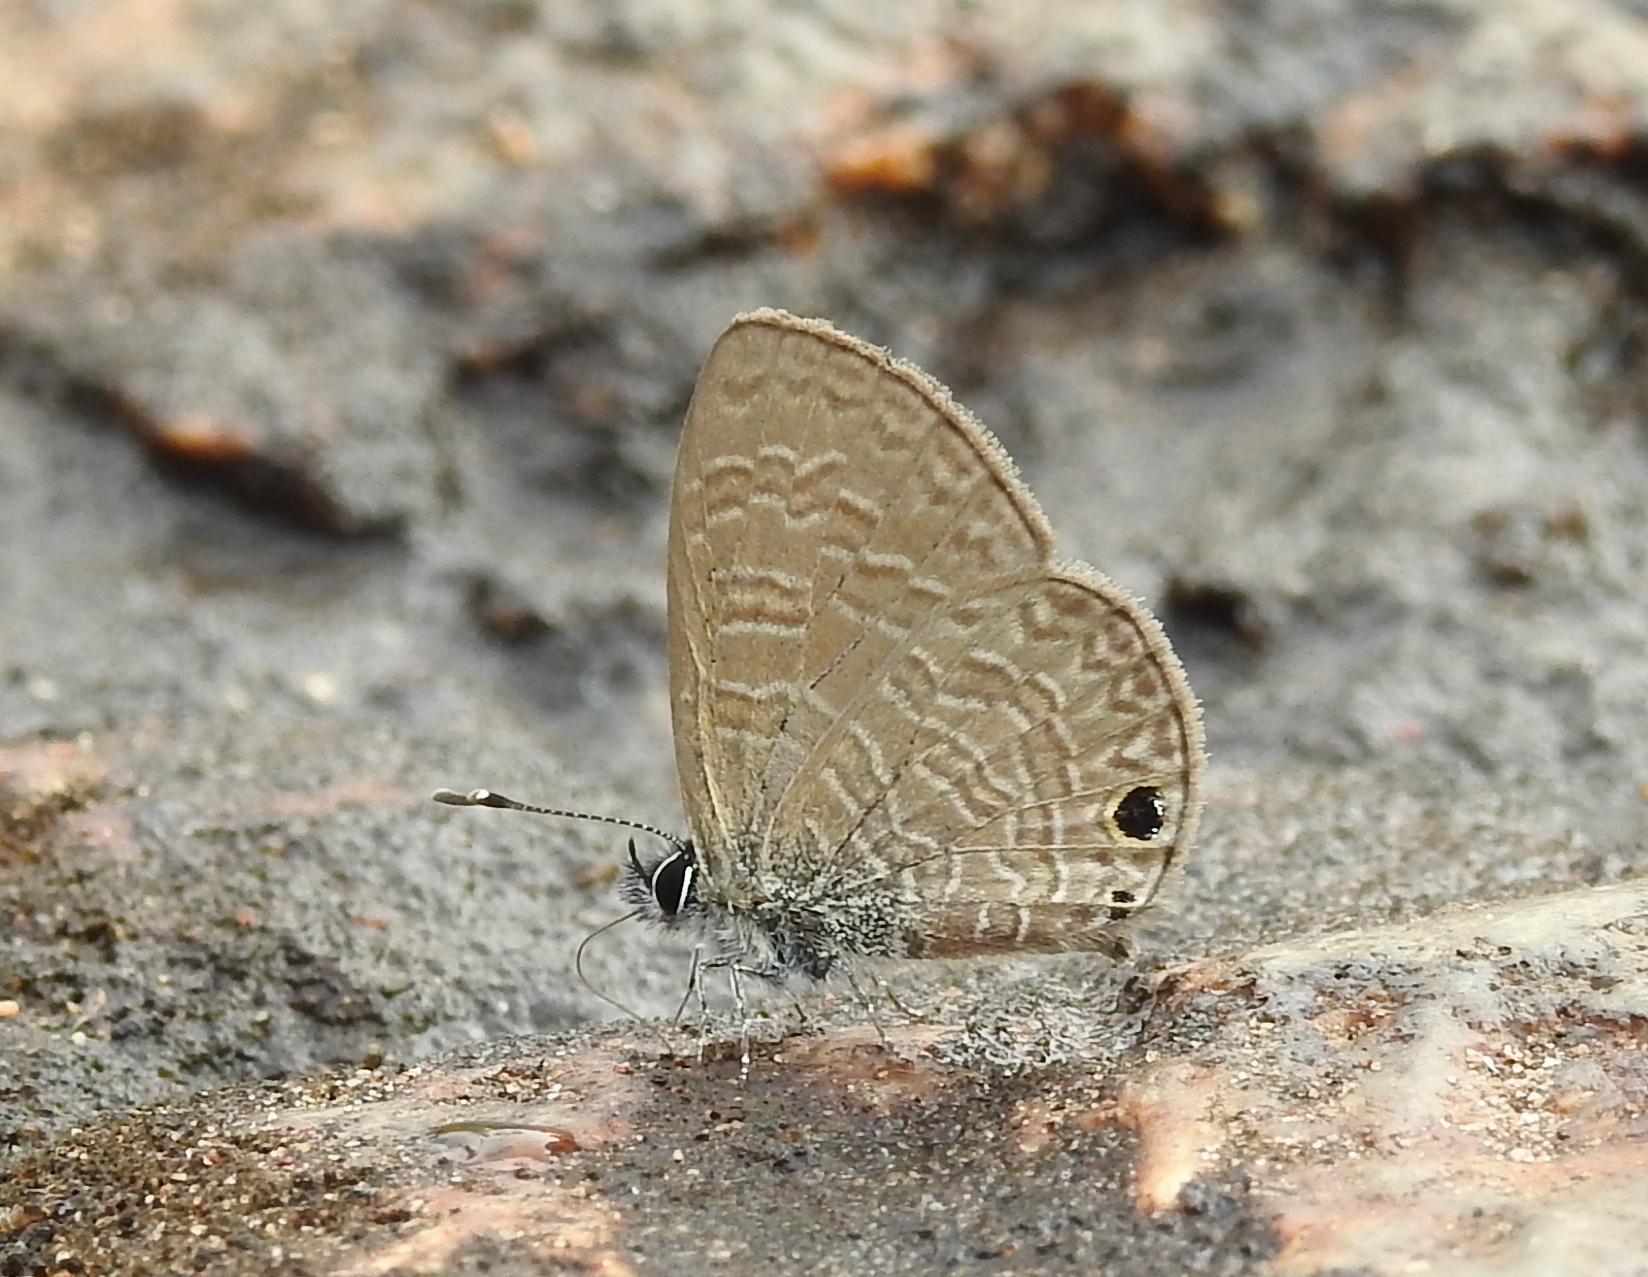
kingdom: Animalia
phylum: Arthropoda
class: Insecta
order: Lepidoptera
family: Lycaenidae
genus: Prosotas
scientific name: Prosotas dubiosa
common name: Tailless lineblue
